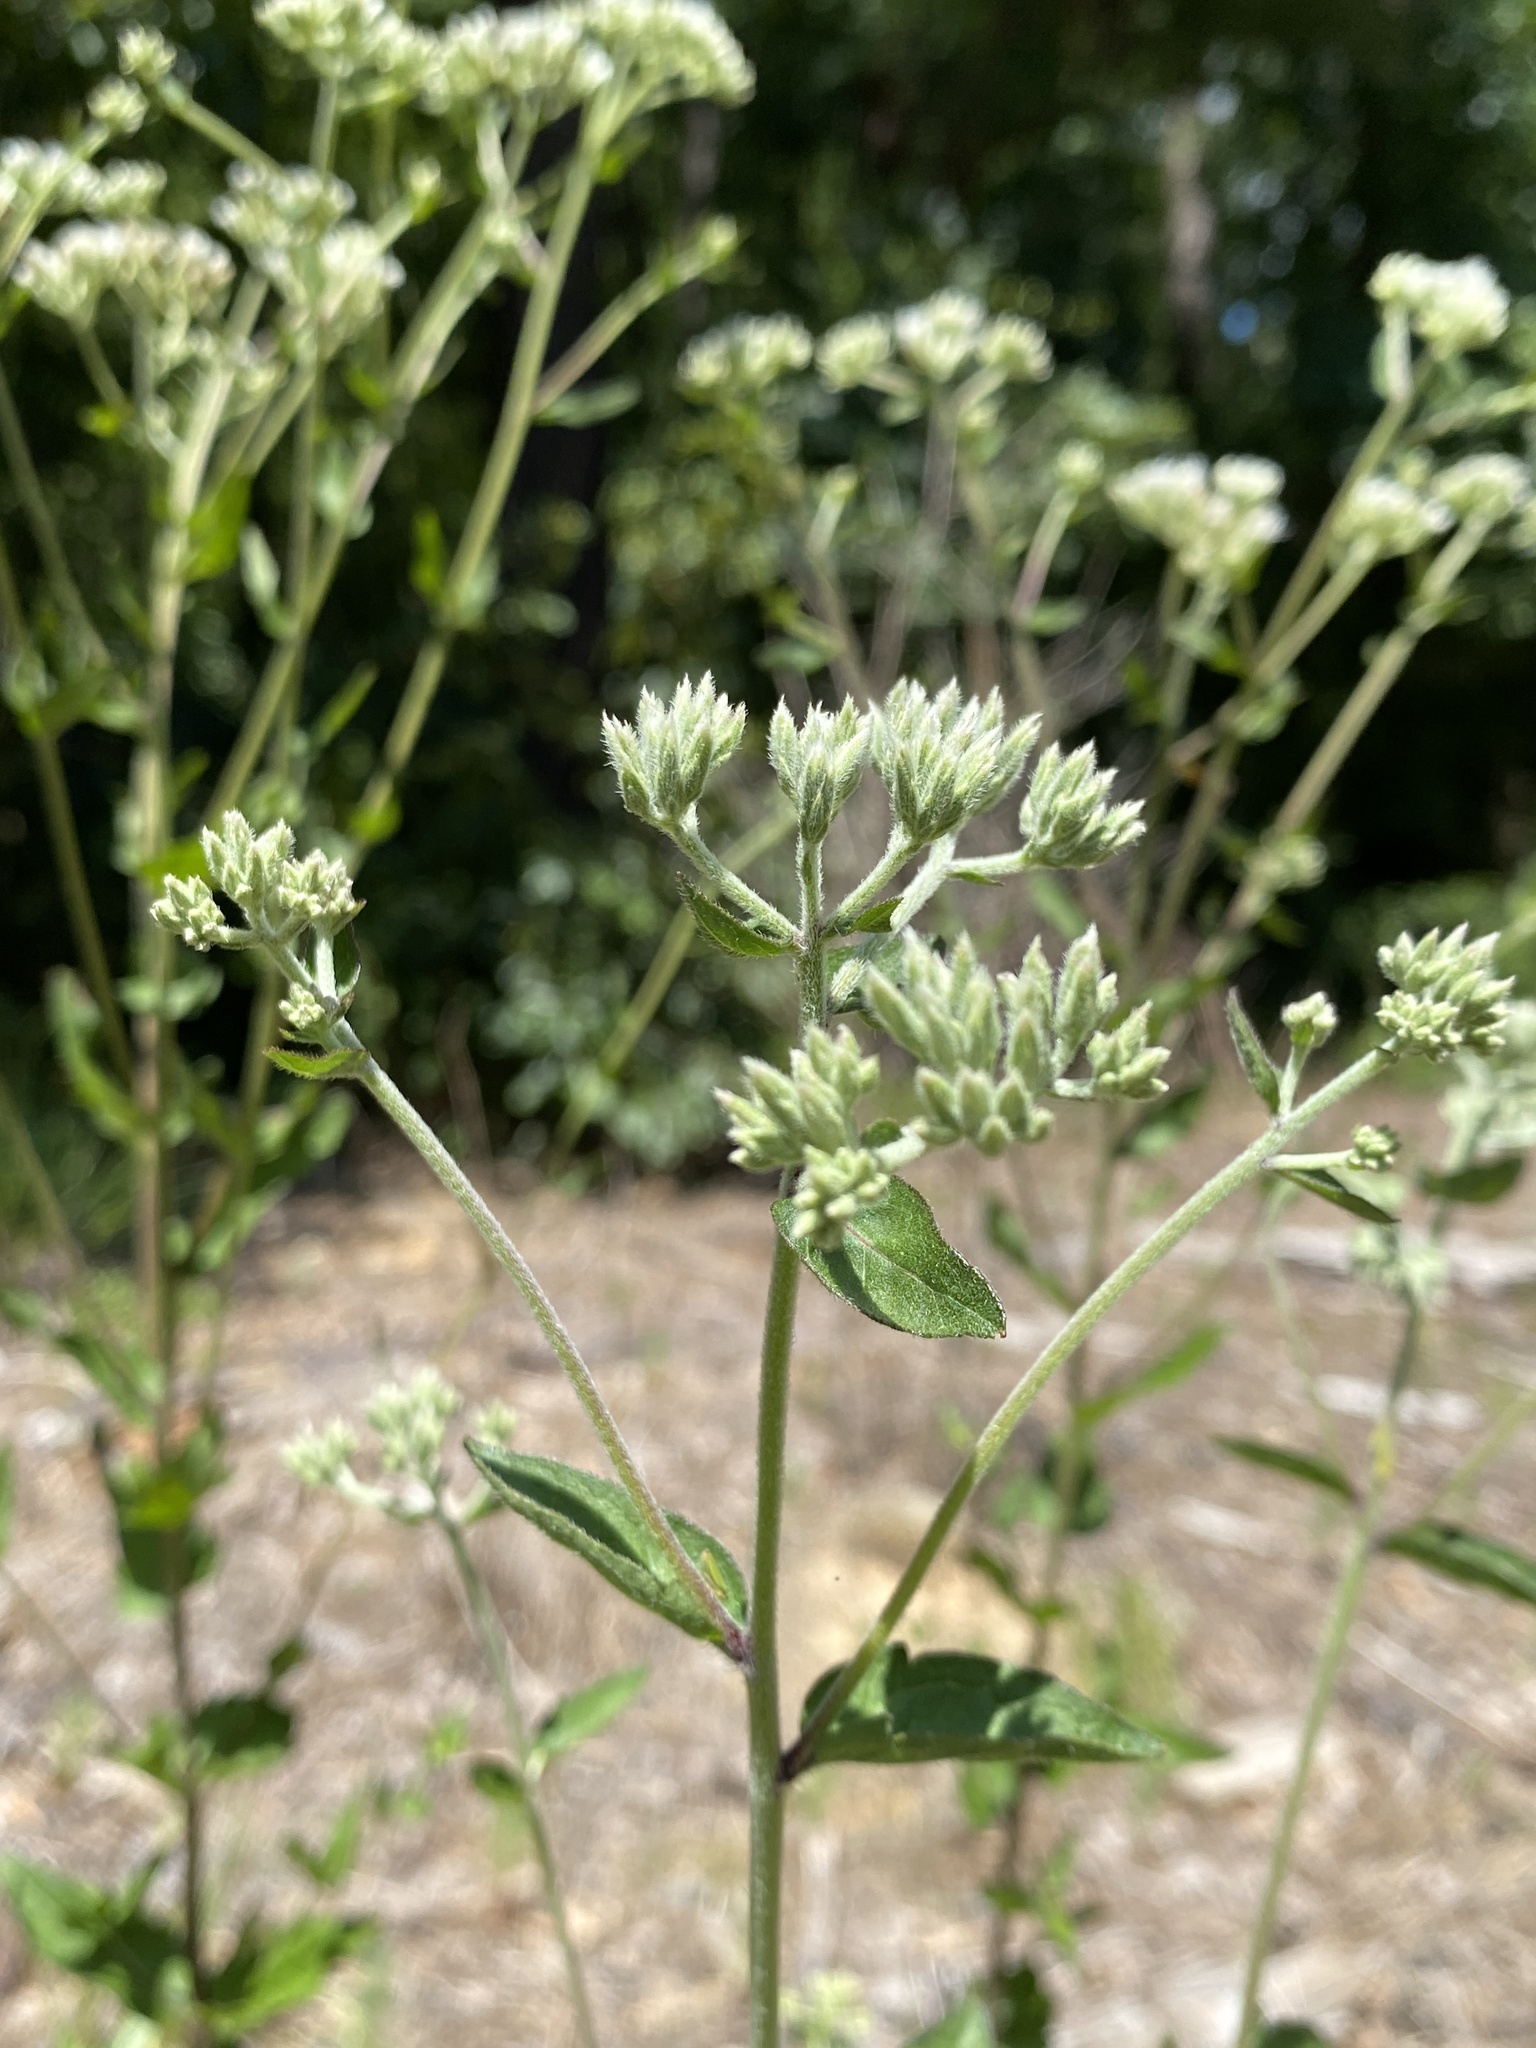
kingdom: Plantae
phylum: Tracheophyta
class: Magnoliopsida
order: Asterales
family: Asteraceae
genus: Eupatorium
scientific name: Eupatorium pilosum
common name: Rough boneset
